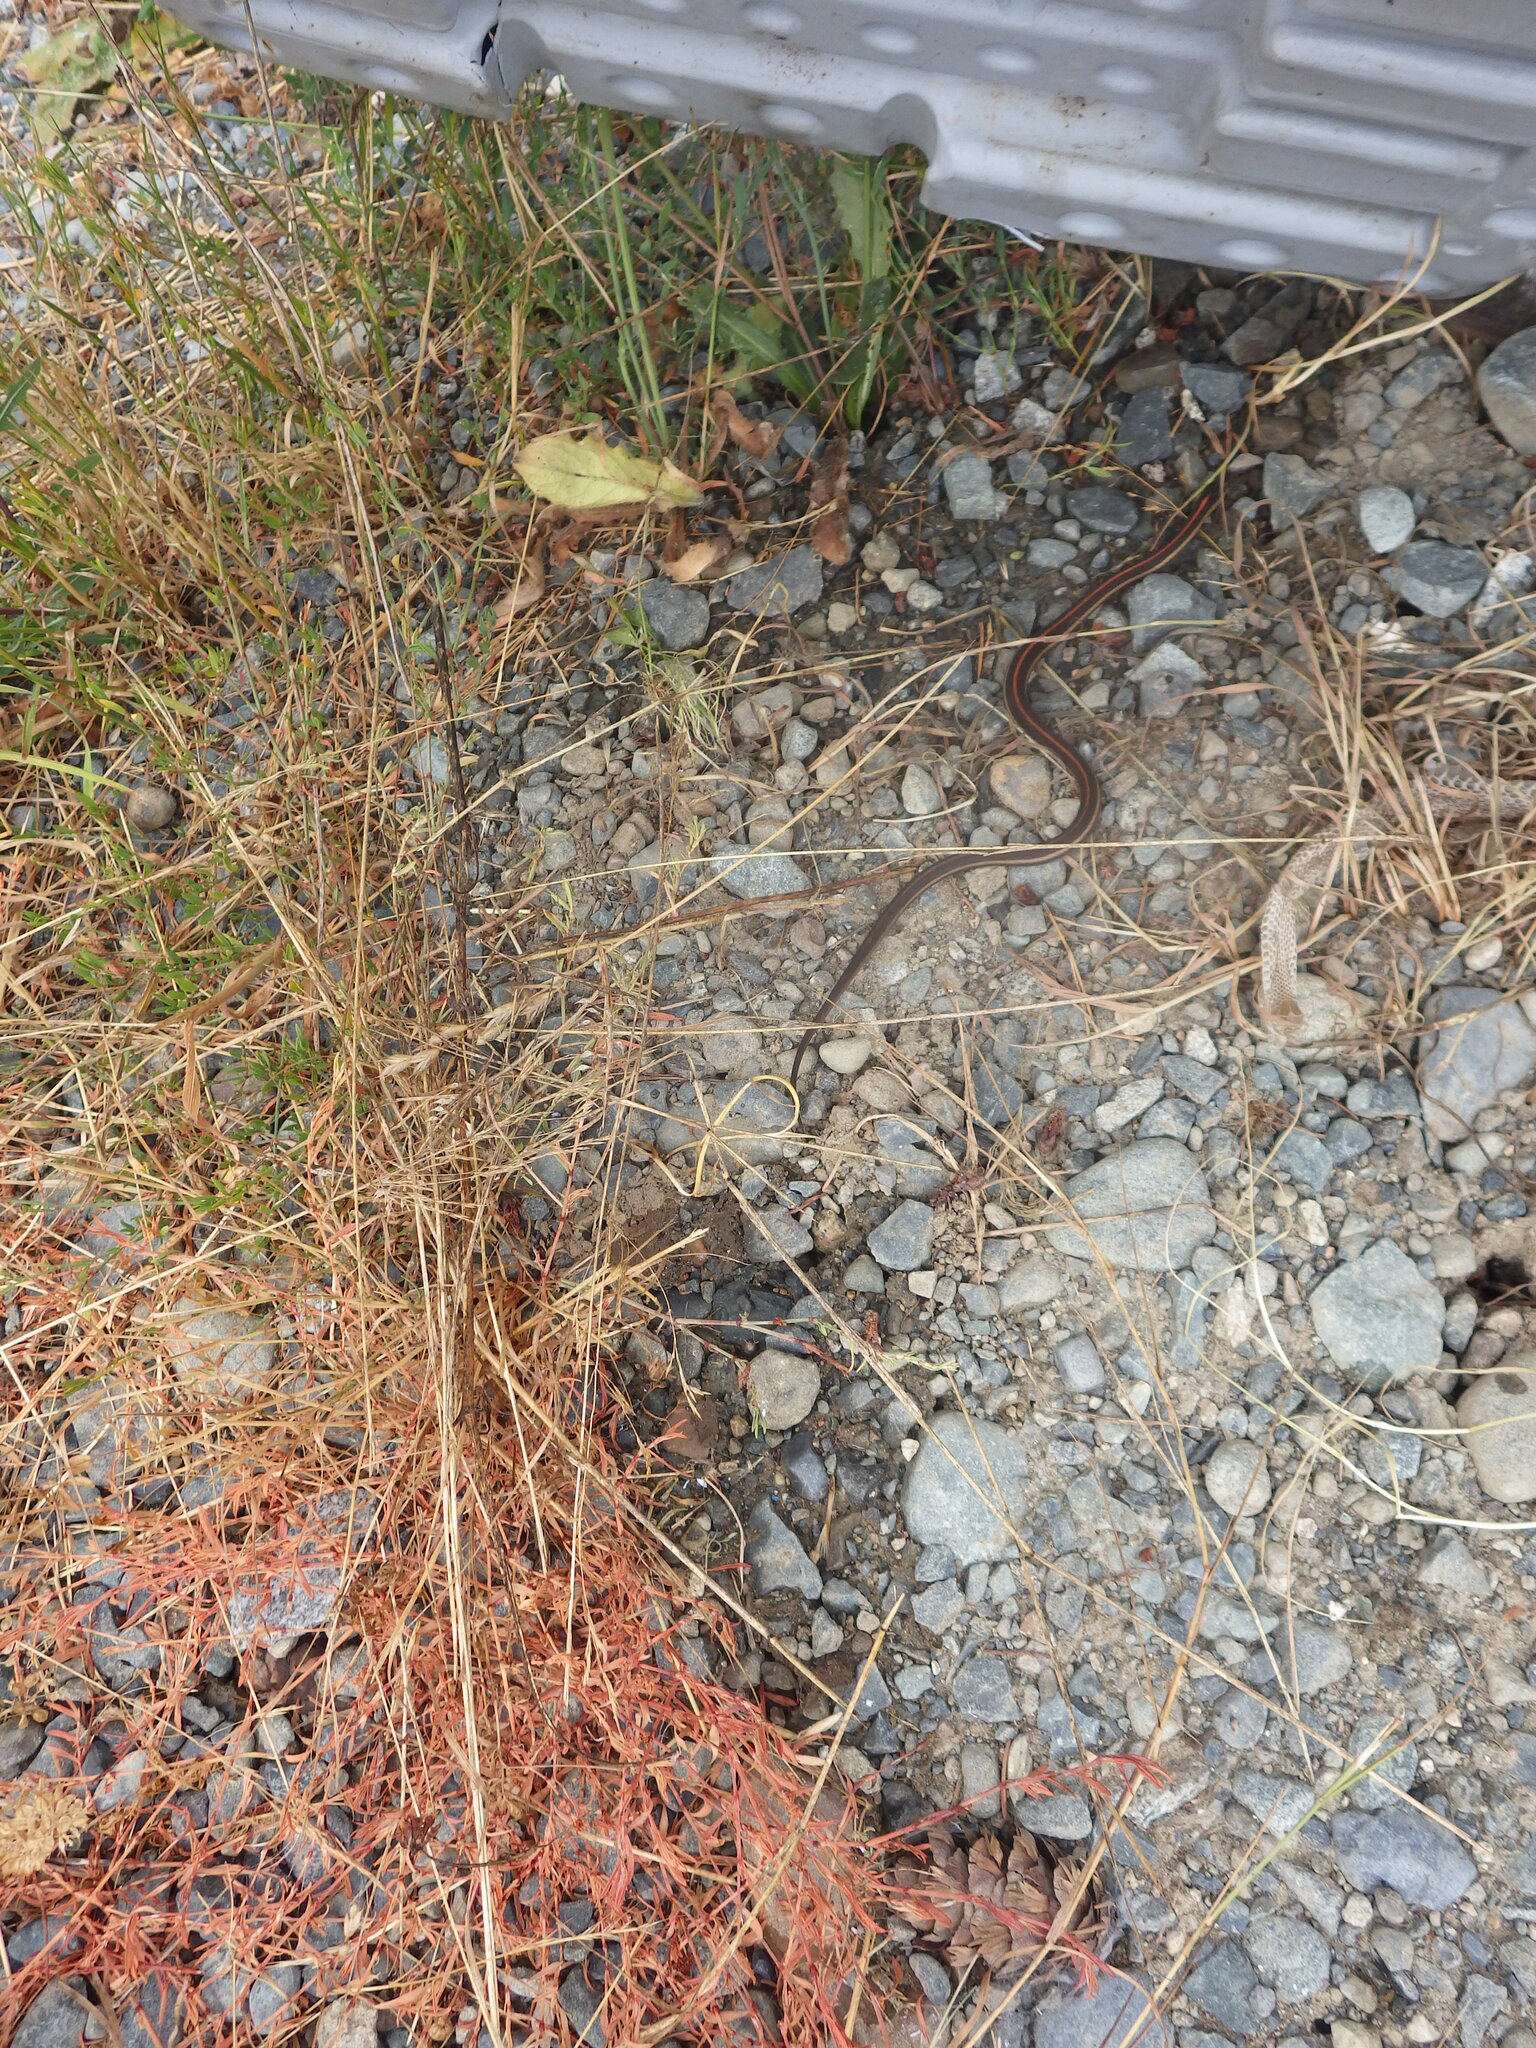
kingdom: Animalia
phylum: Chordata
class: Squamata
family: Colubridae
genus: Thamnophis
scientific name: Thamnophis ordinoides
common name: Northwestern garter snake
